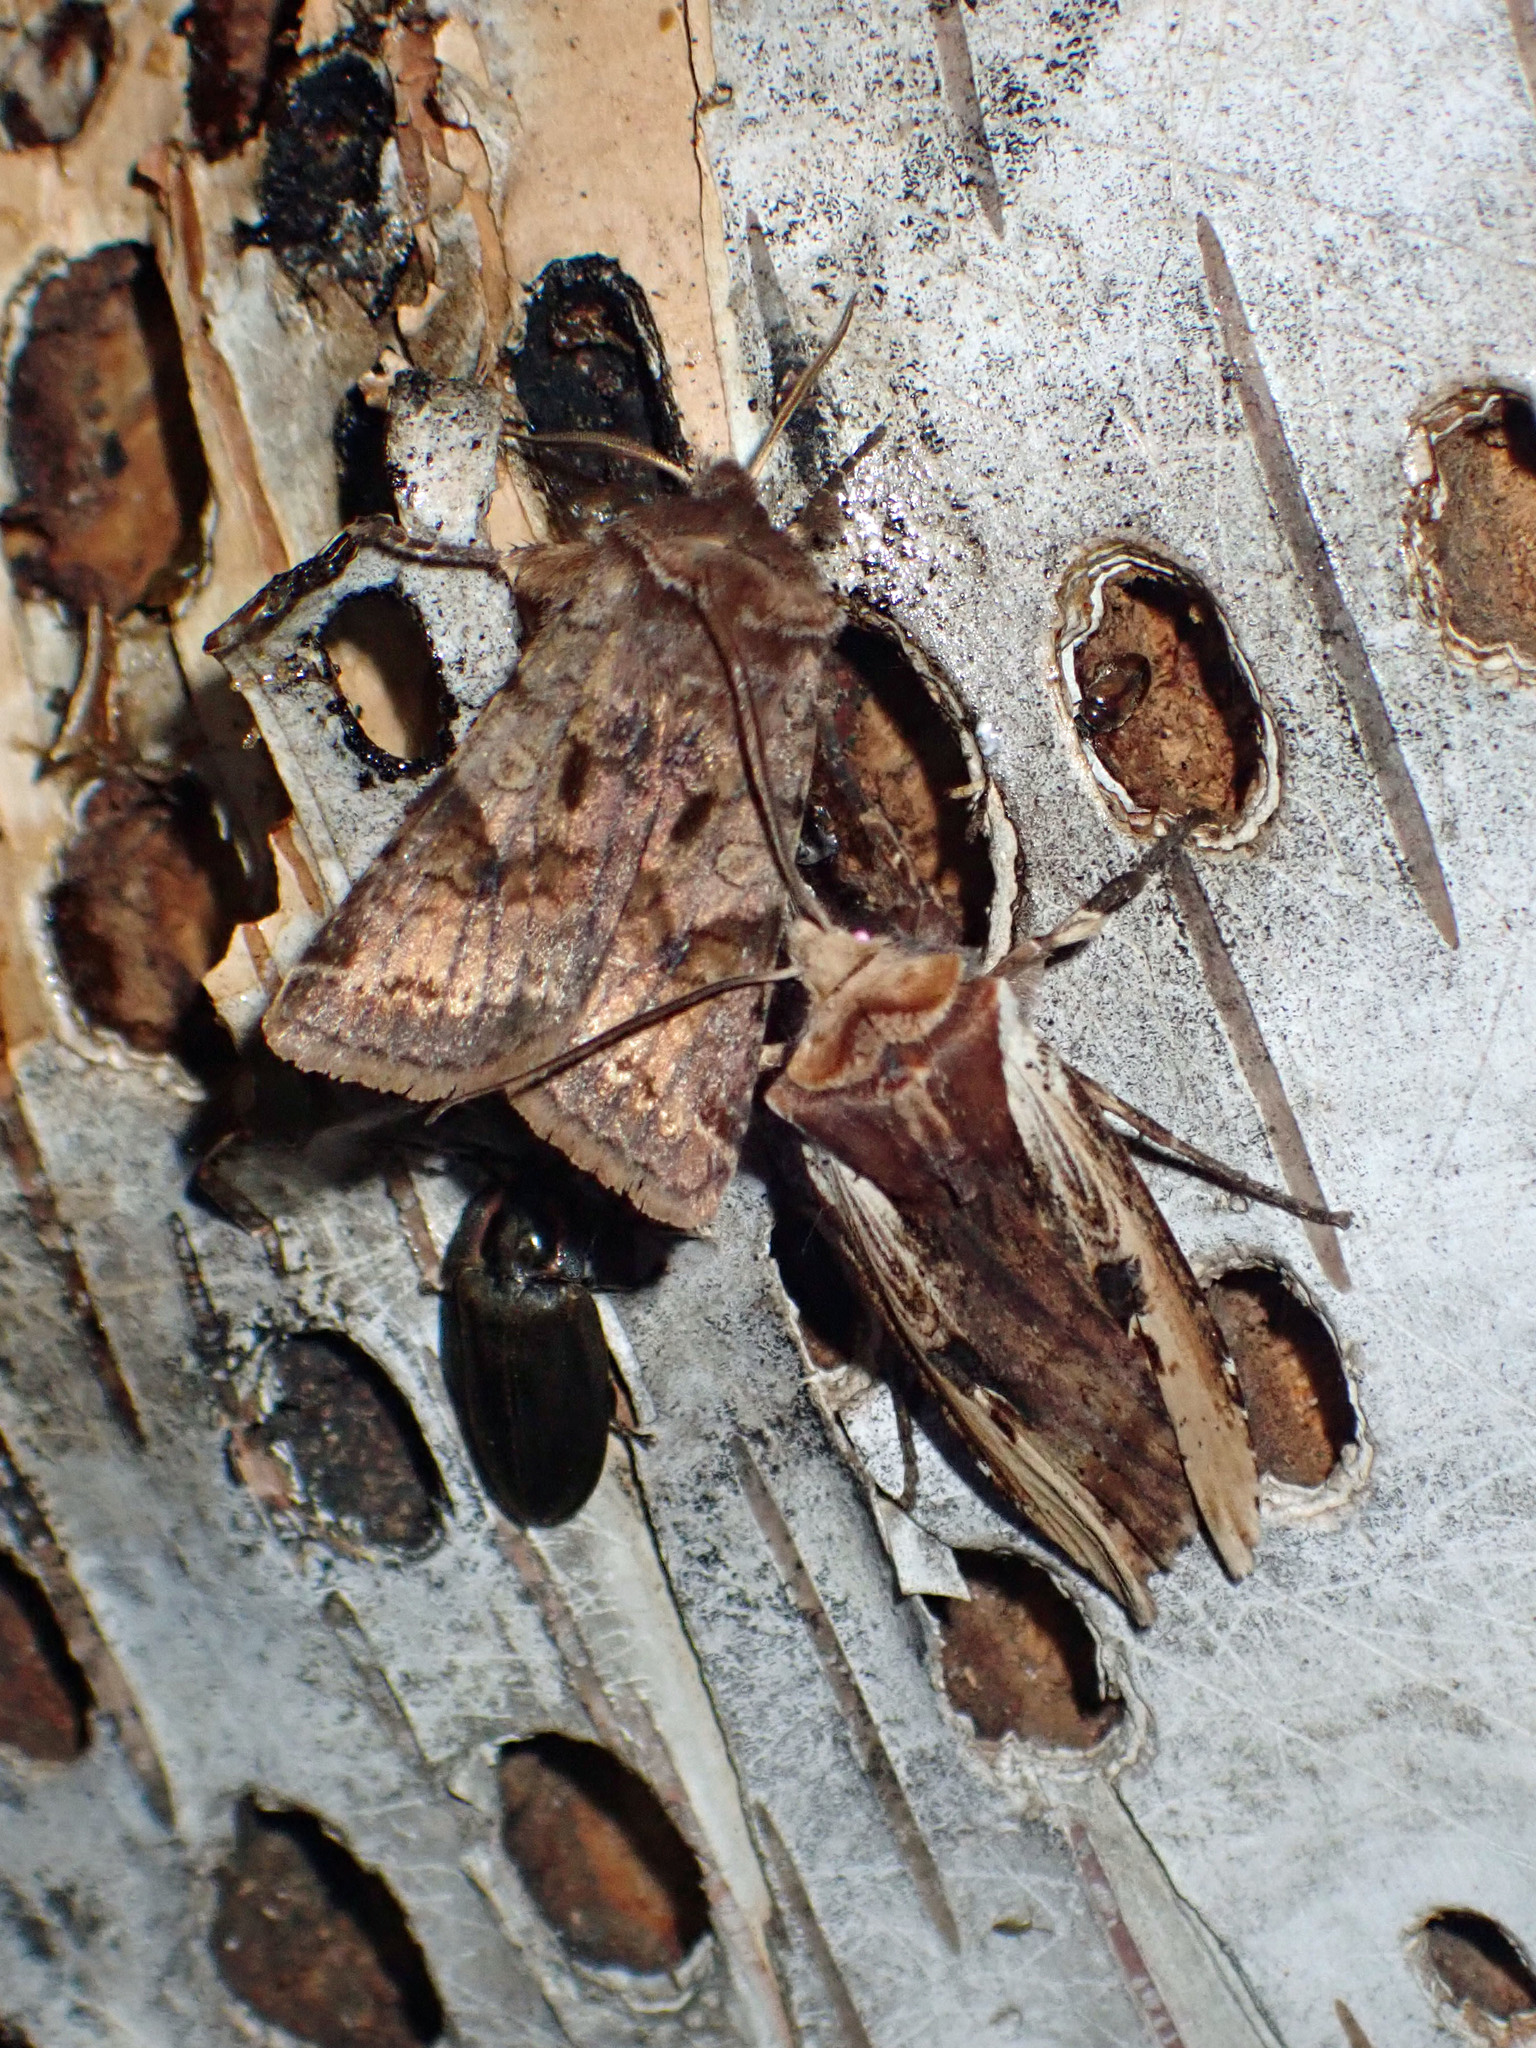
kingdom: Animalia
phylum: Arthropoda
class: Insecta
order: Lepidoptera
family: Noctuidae
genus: Xylena
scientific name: Xylena curvimacula
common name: Dot-and-dash swordgrass moth
